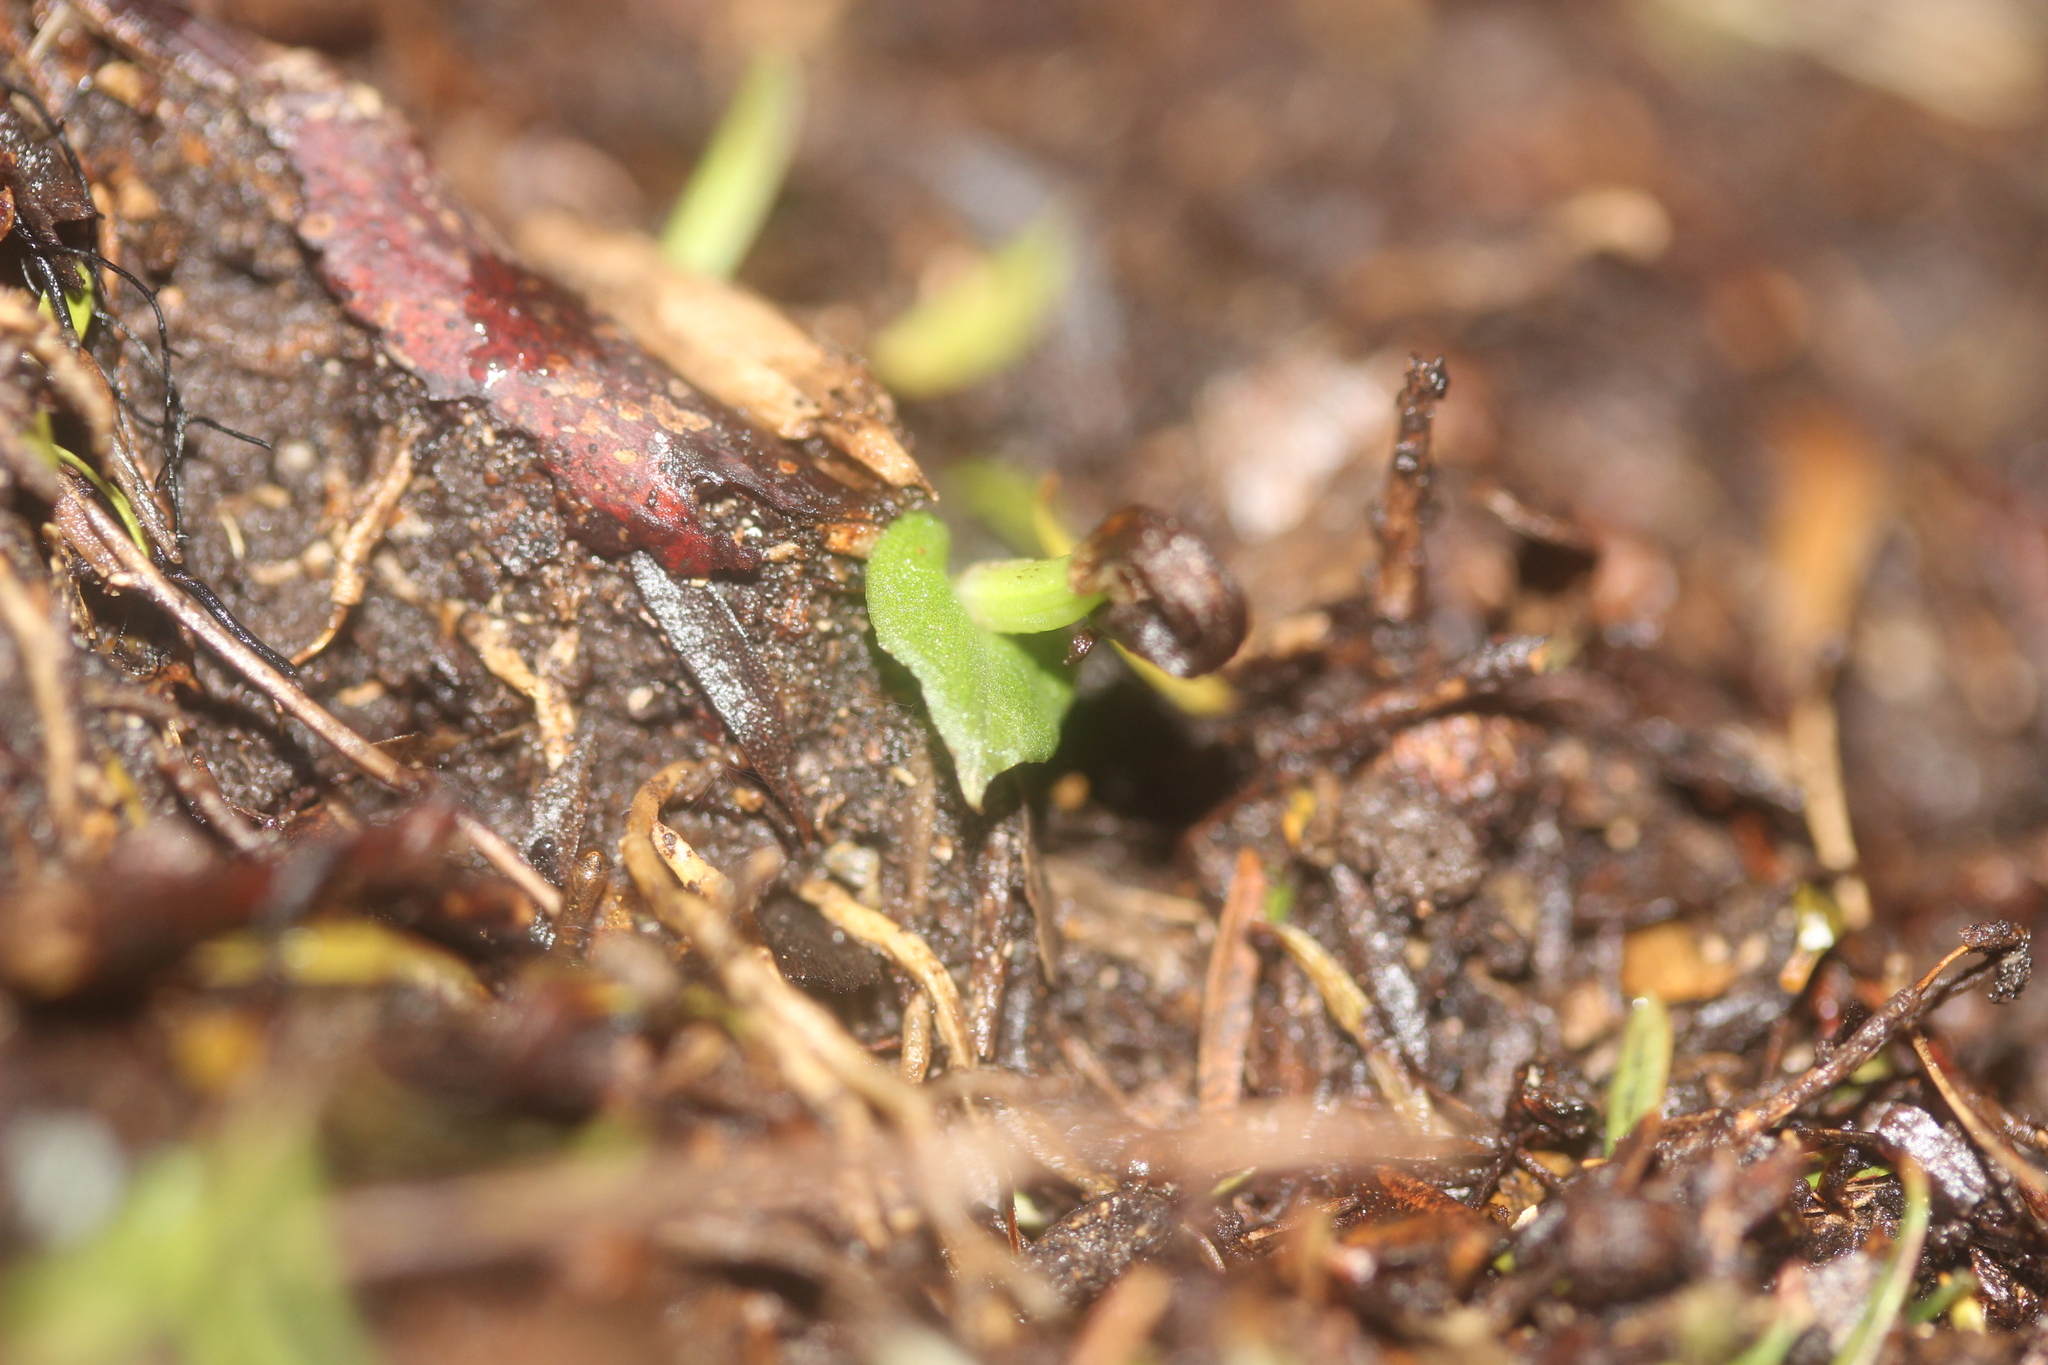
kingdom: Plantae
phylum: Tracheophyta
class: Liliopsida
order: Asparagales
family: Orchidaceae
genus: Corybas
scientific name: Corybas cheesemanii
